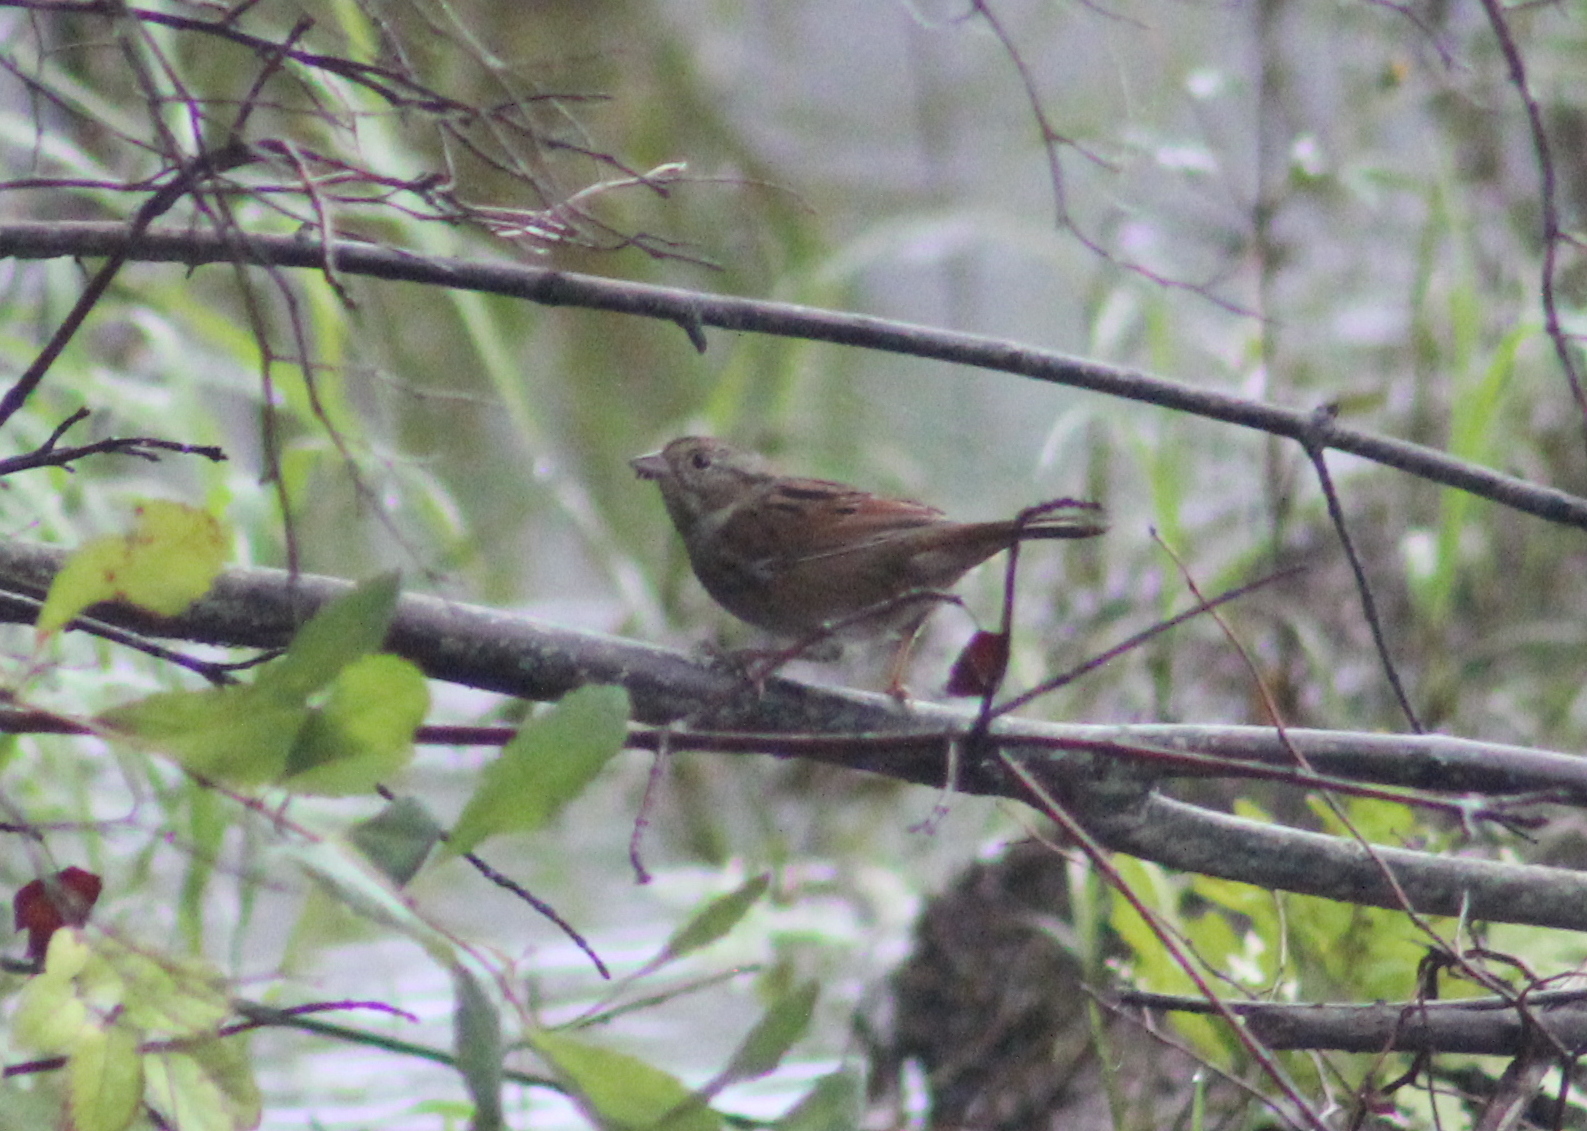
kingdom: Animalia
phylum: Chordata
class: Aves
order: Passeriformes
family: Passerellidae
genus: Melospiza
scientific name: Melospiza georgiana
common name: Swamp sparrow
